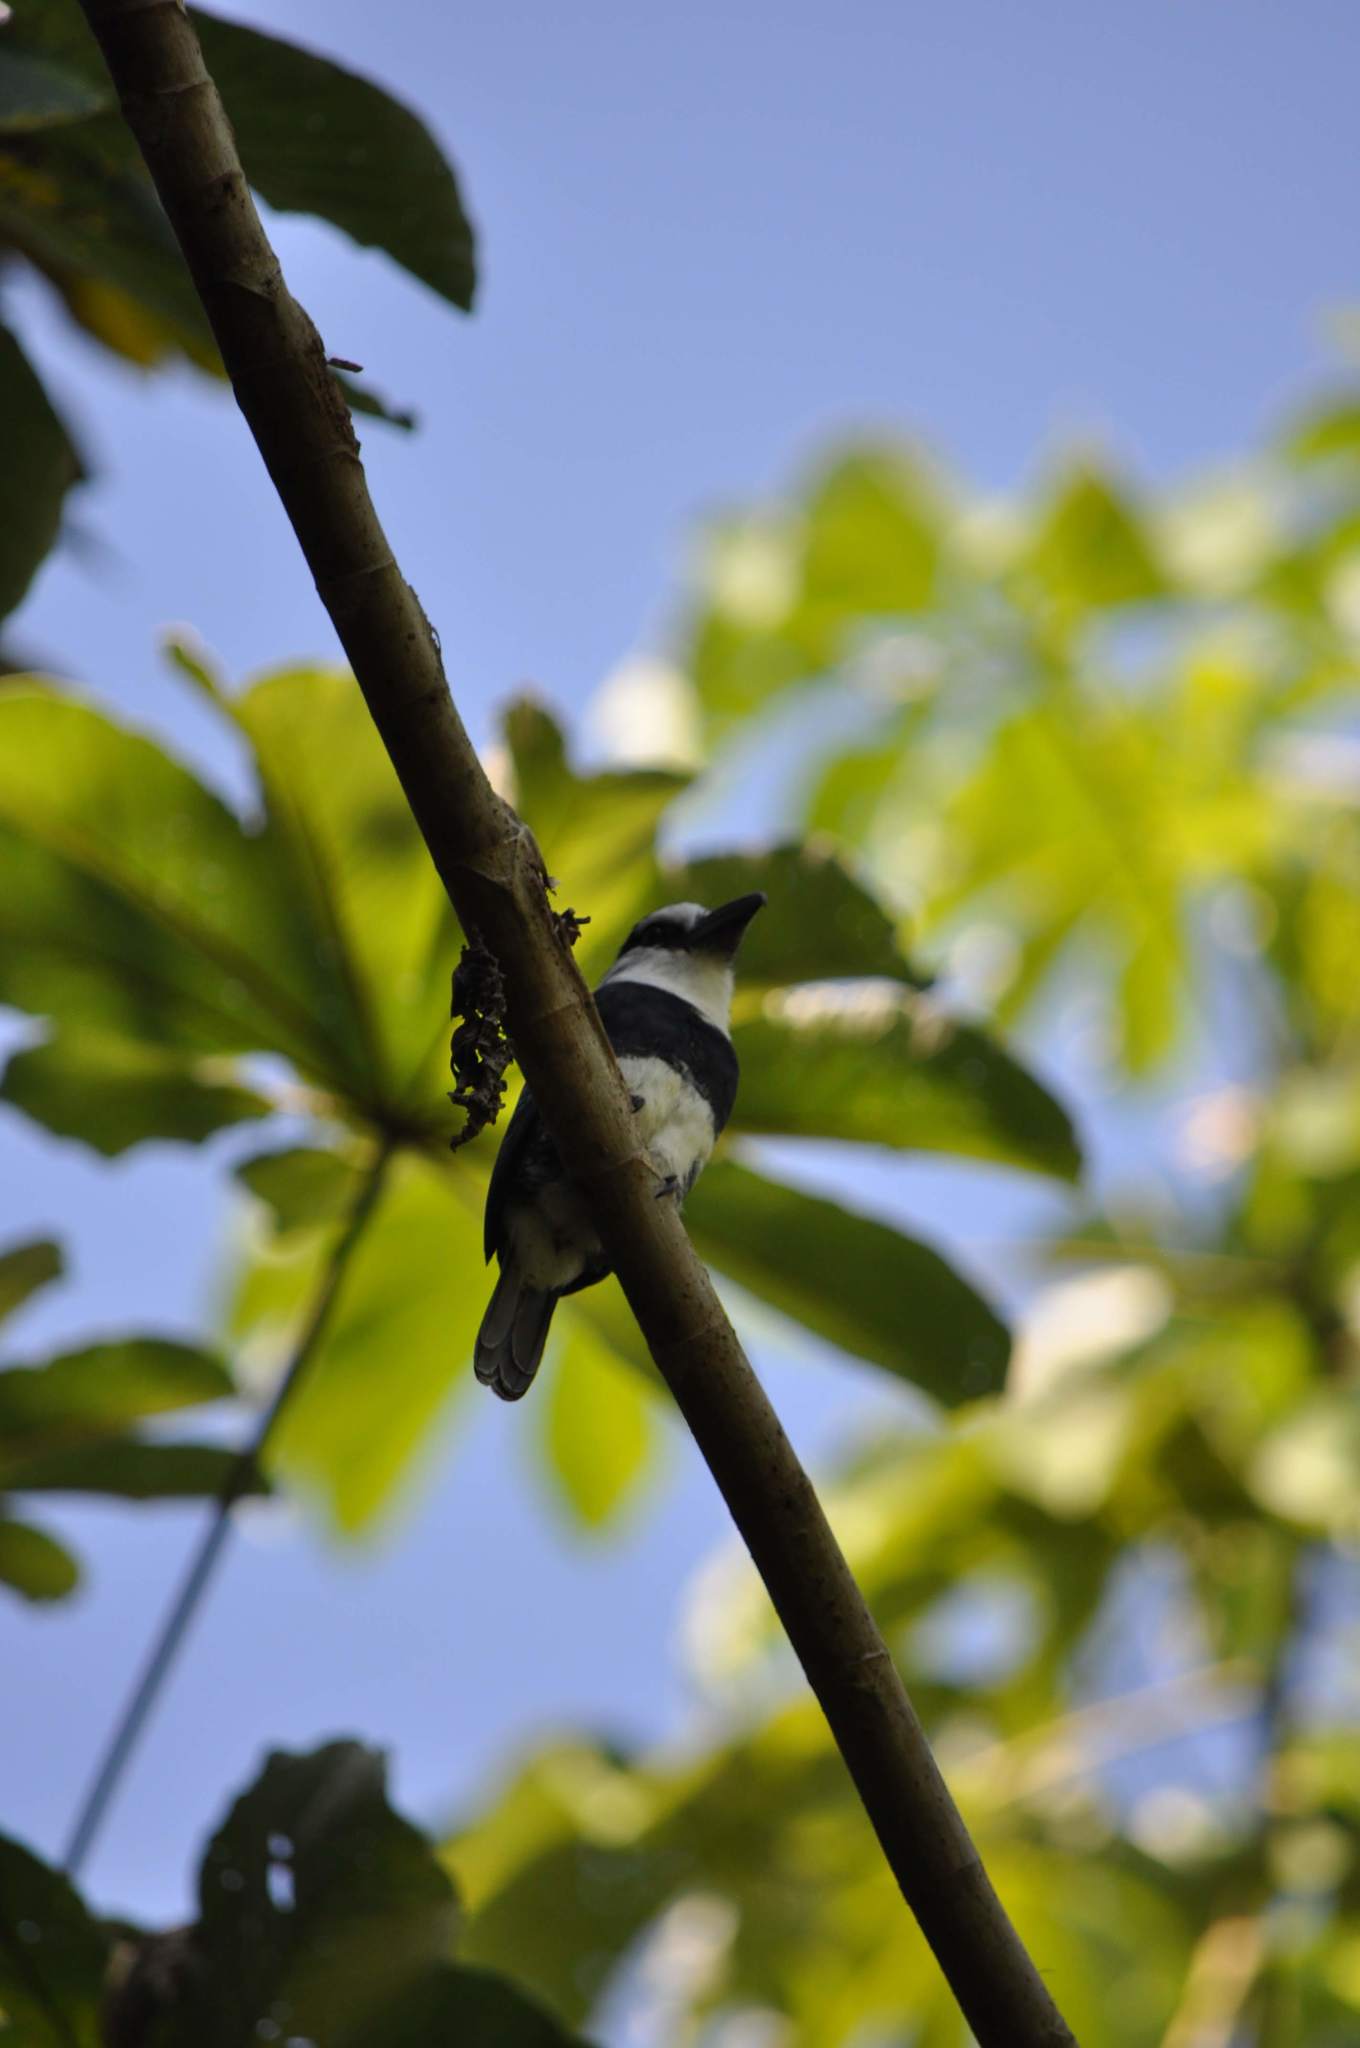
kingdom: Animalia
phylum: Chordata
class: Aves
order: Piciformes
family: Bucconidae
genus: Notharchus
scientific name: Notharchus hyperrhynchus
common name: White-necked puffbird
